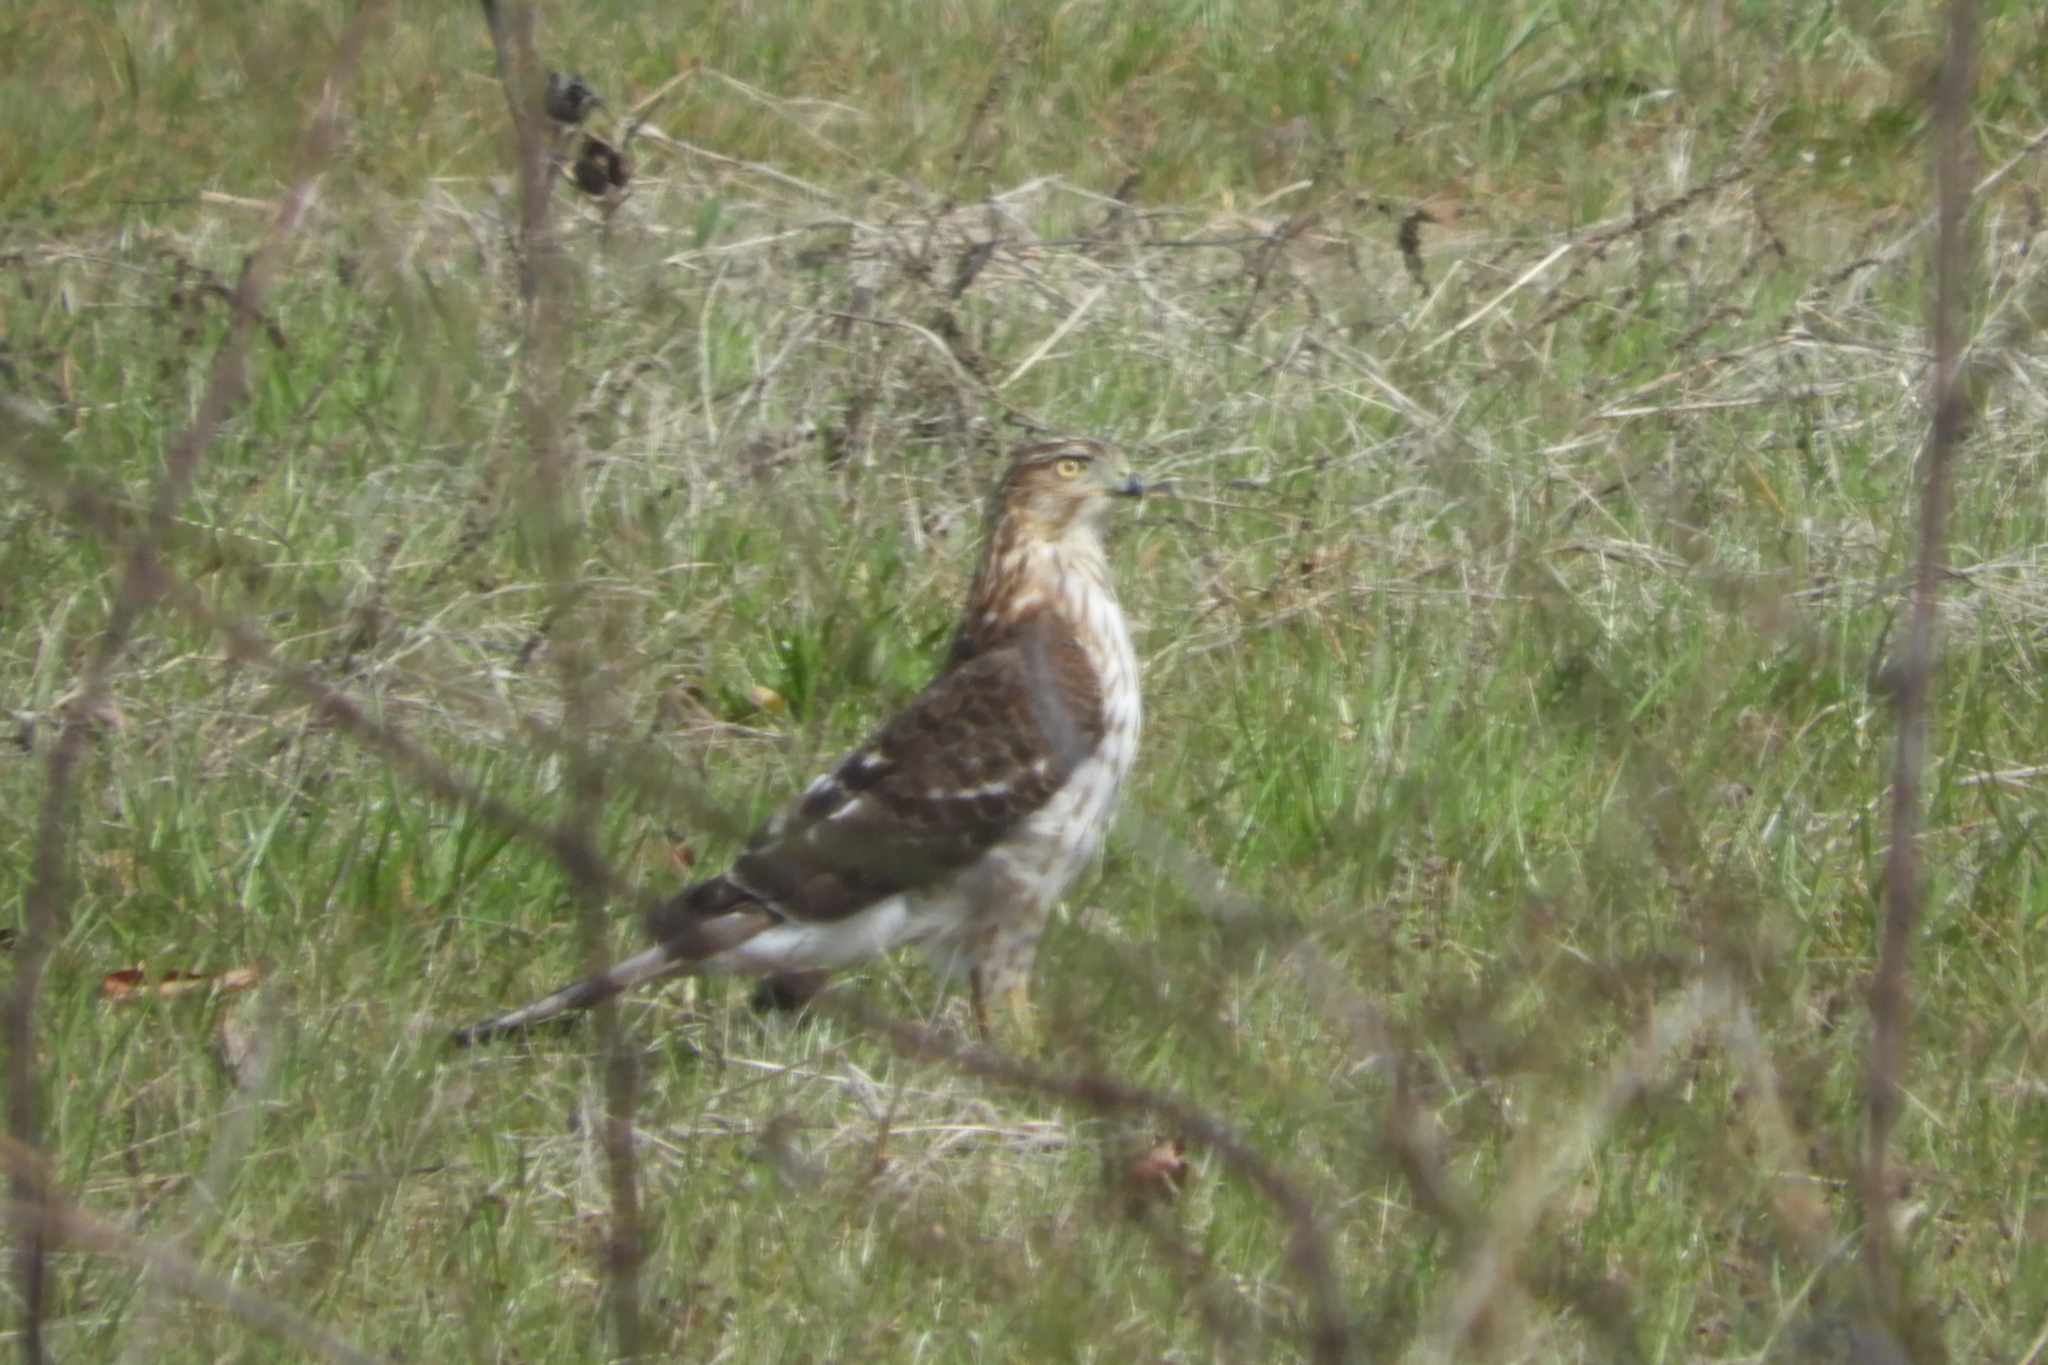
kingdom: Animalia
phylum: Chordata
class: Aves
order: Accipitriformes
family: Accipitridae
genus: Accipiter
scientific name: Accipiter cooperii
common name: Cooper's hawk
